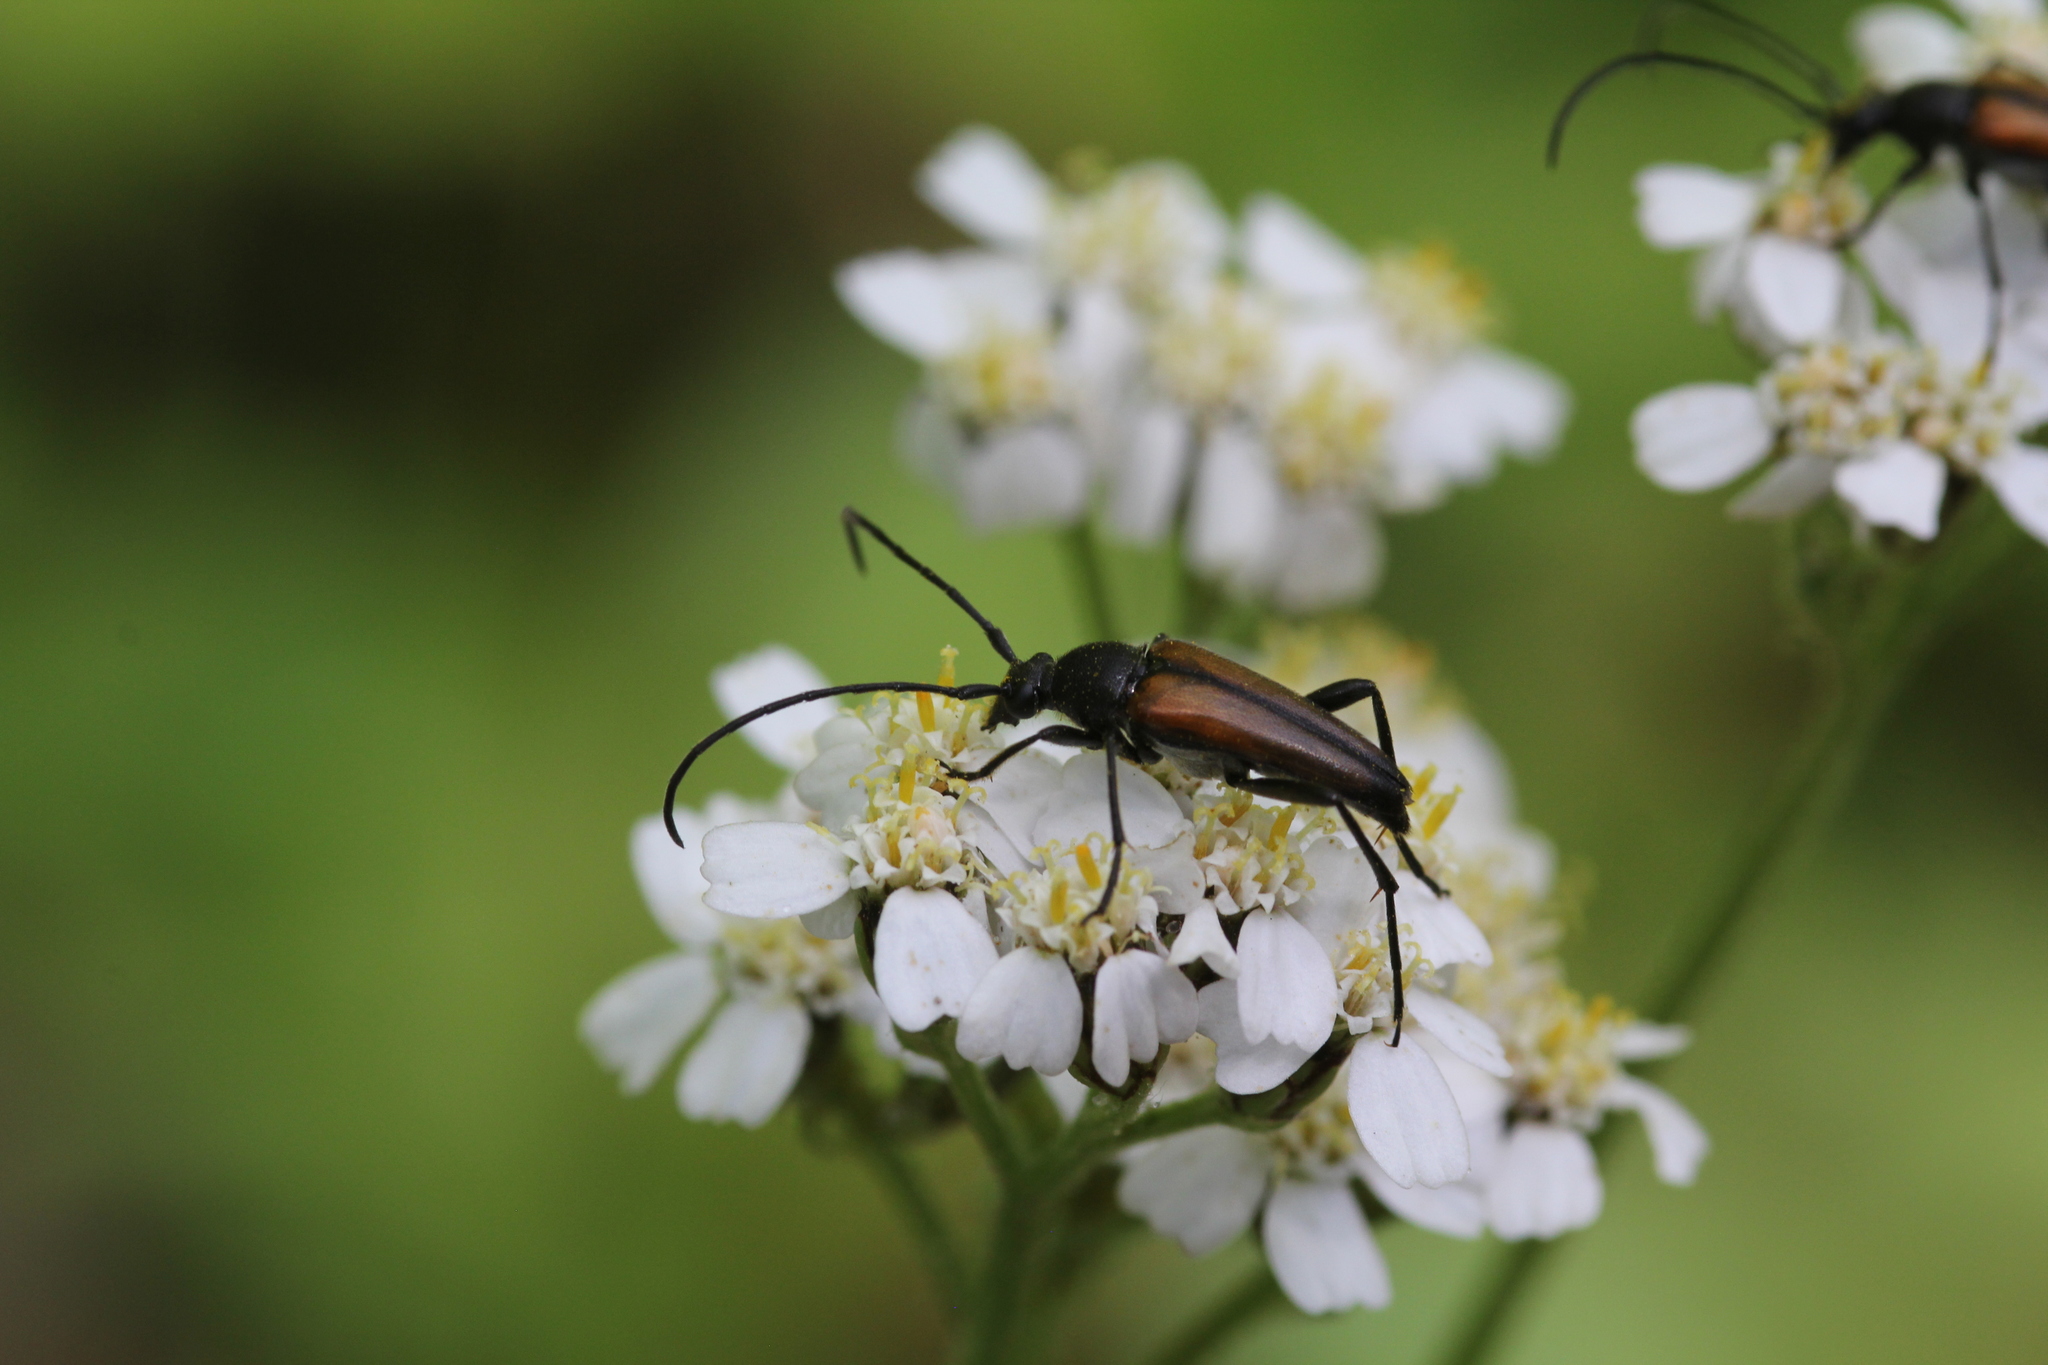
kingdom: Animalia
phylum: Arthropoda
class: Insecta
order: Coleoptera
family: Cerambycidae
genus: Stenurella
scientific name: Stenurella melanura
